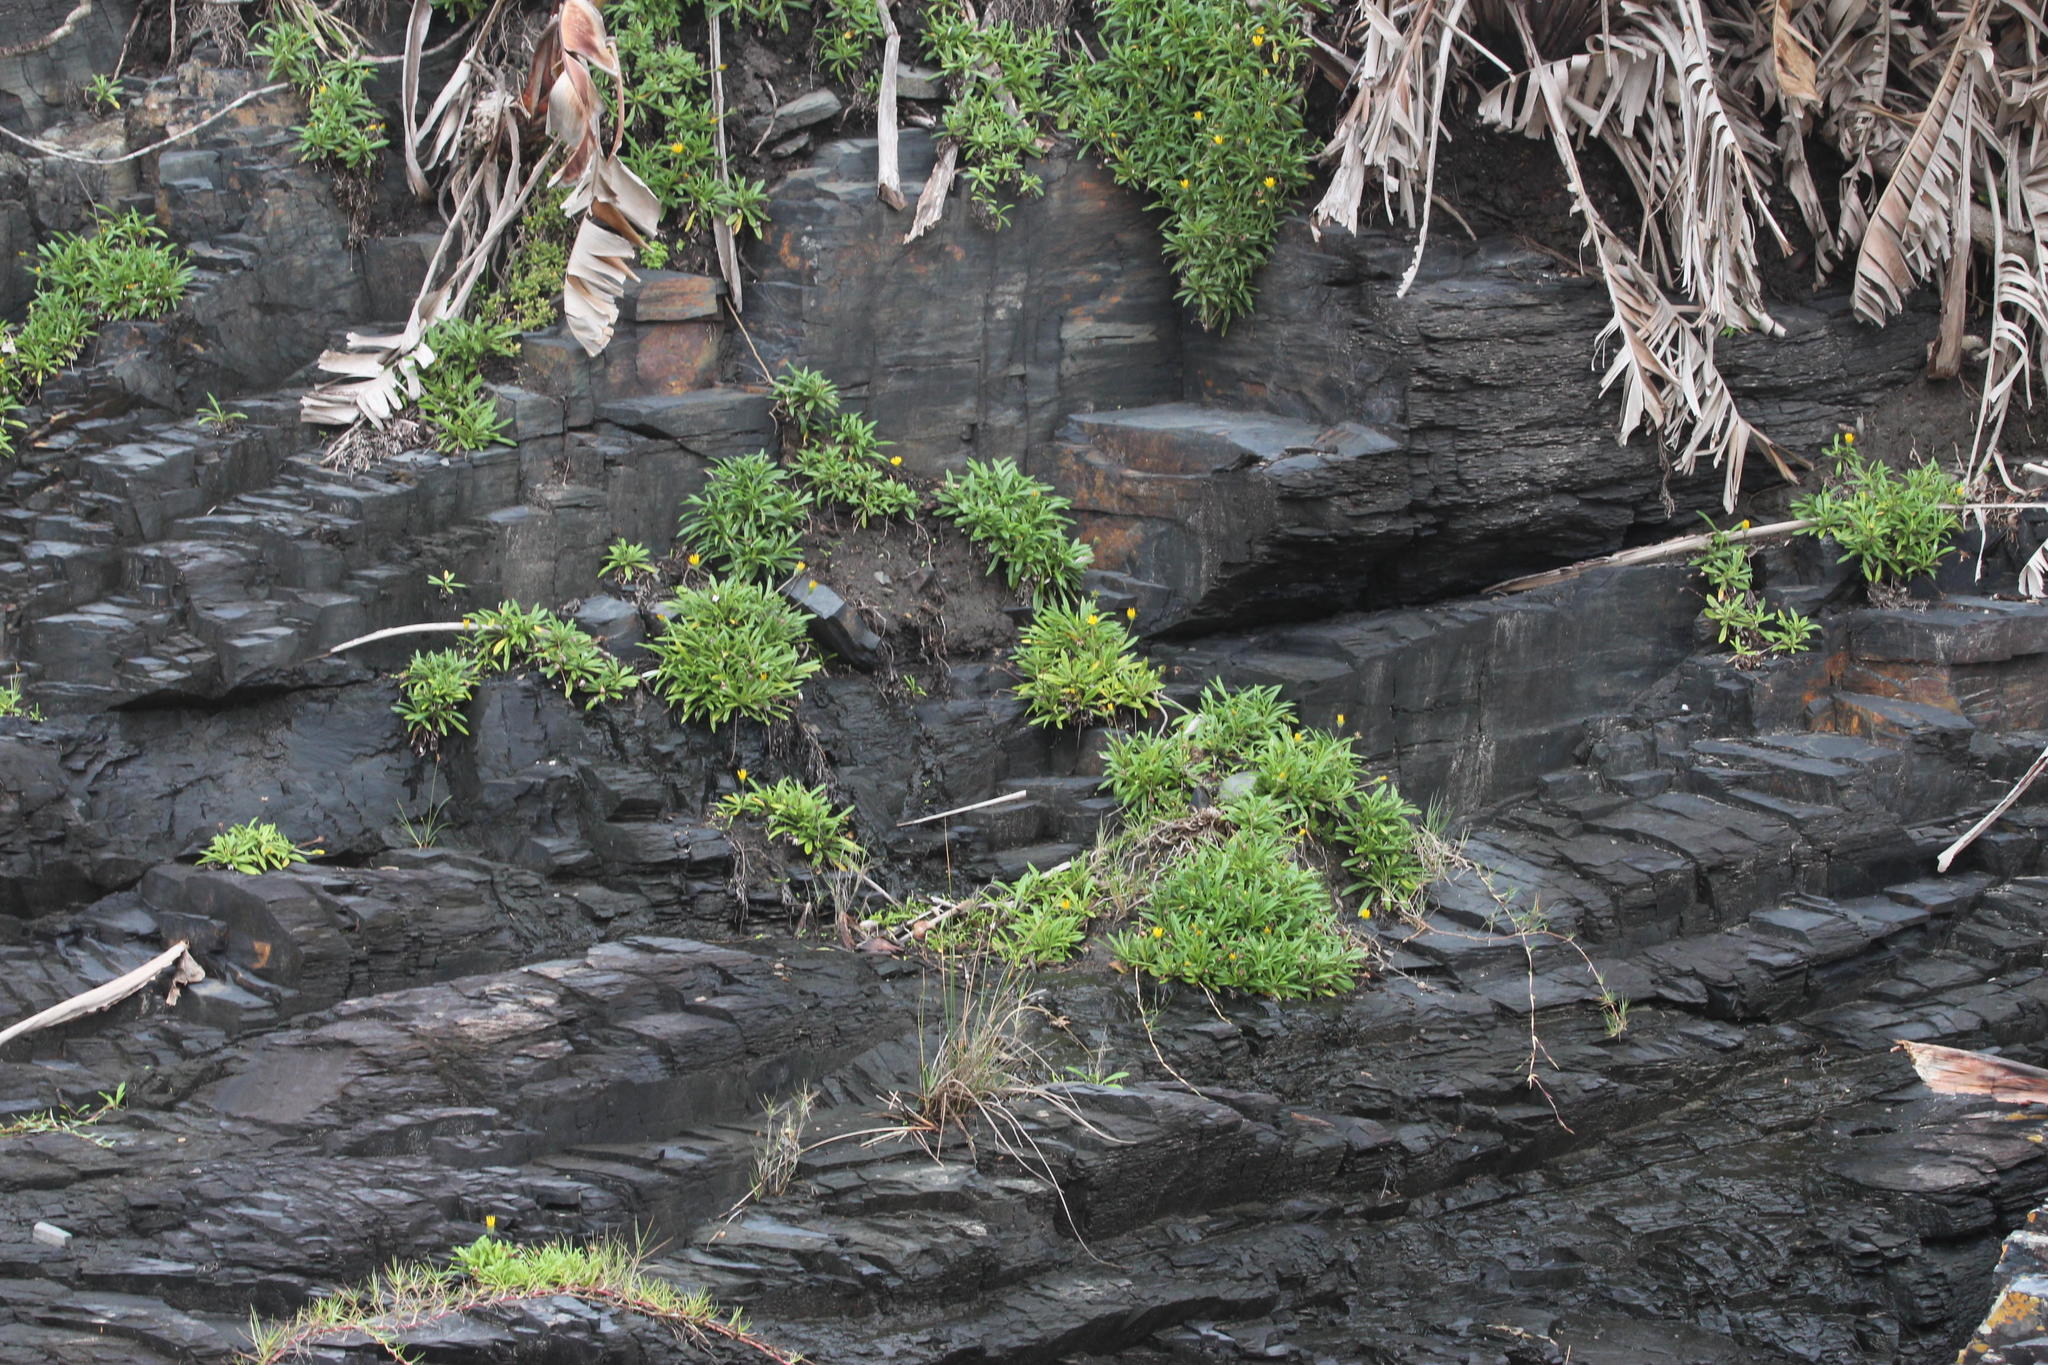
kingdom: Plantae
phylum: Tracheophyta
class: Magnoliopsida
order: Asterales
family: Asteraceae
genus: Gazania
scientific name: Gazania rigens
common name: Treasureflower
